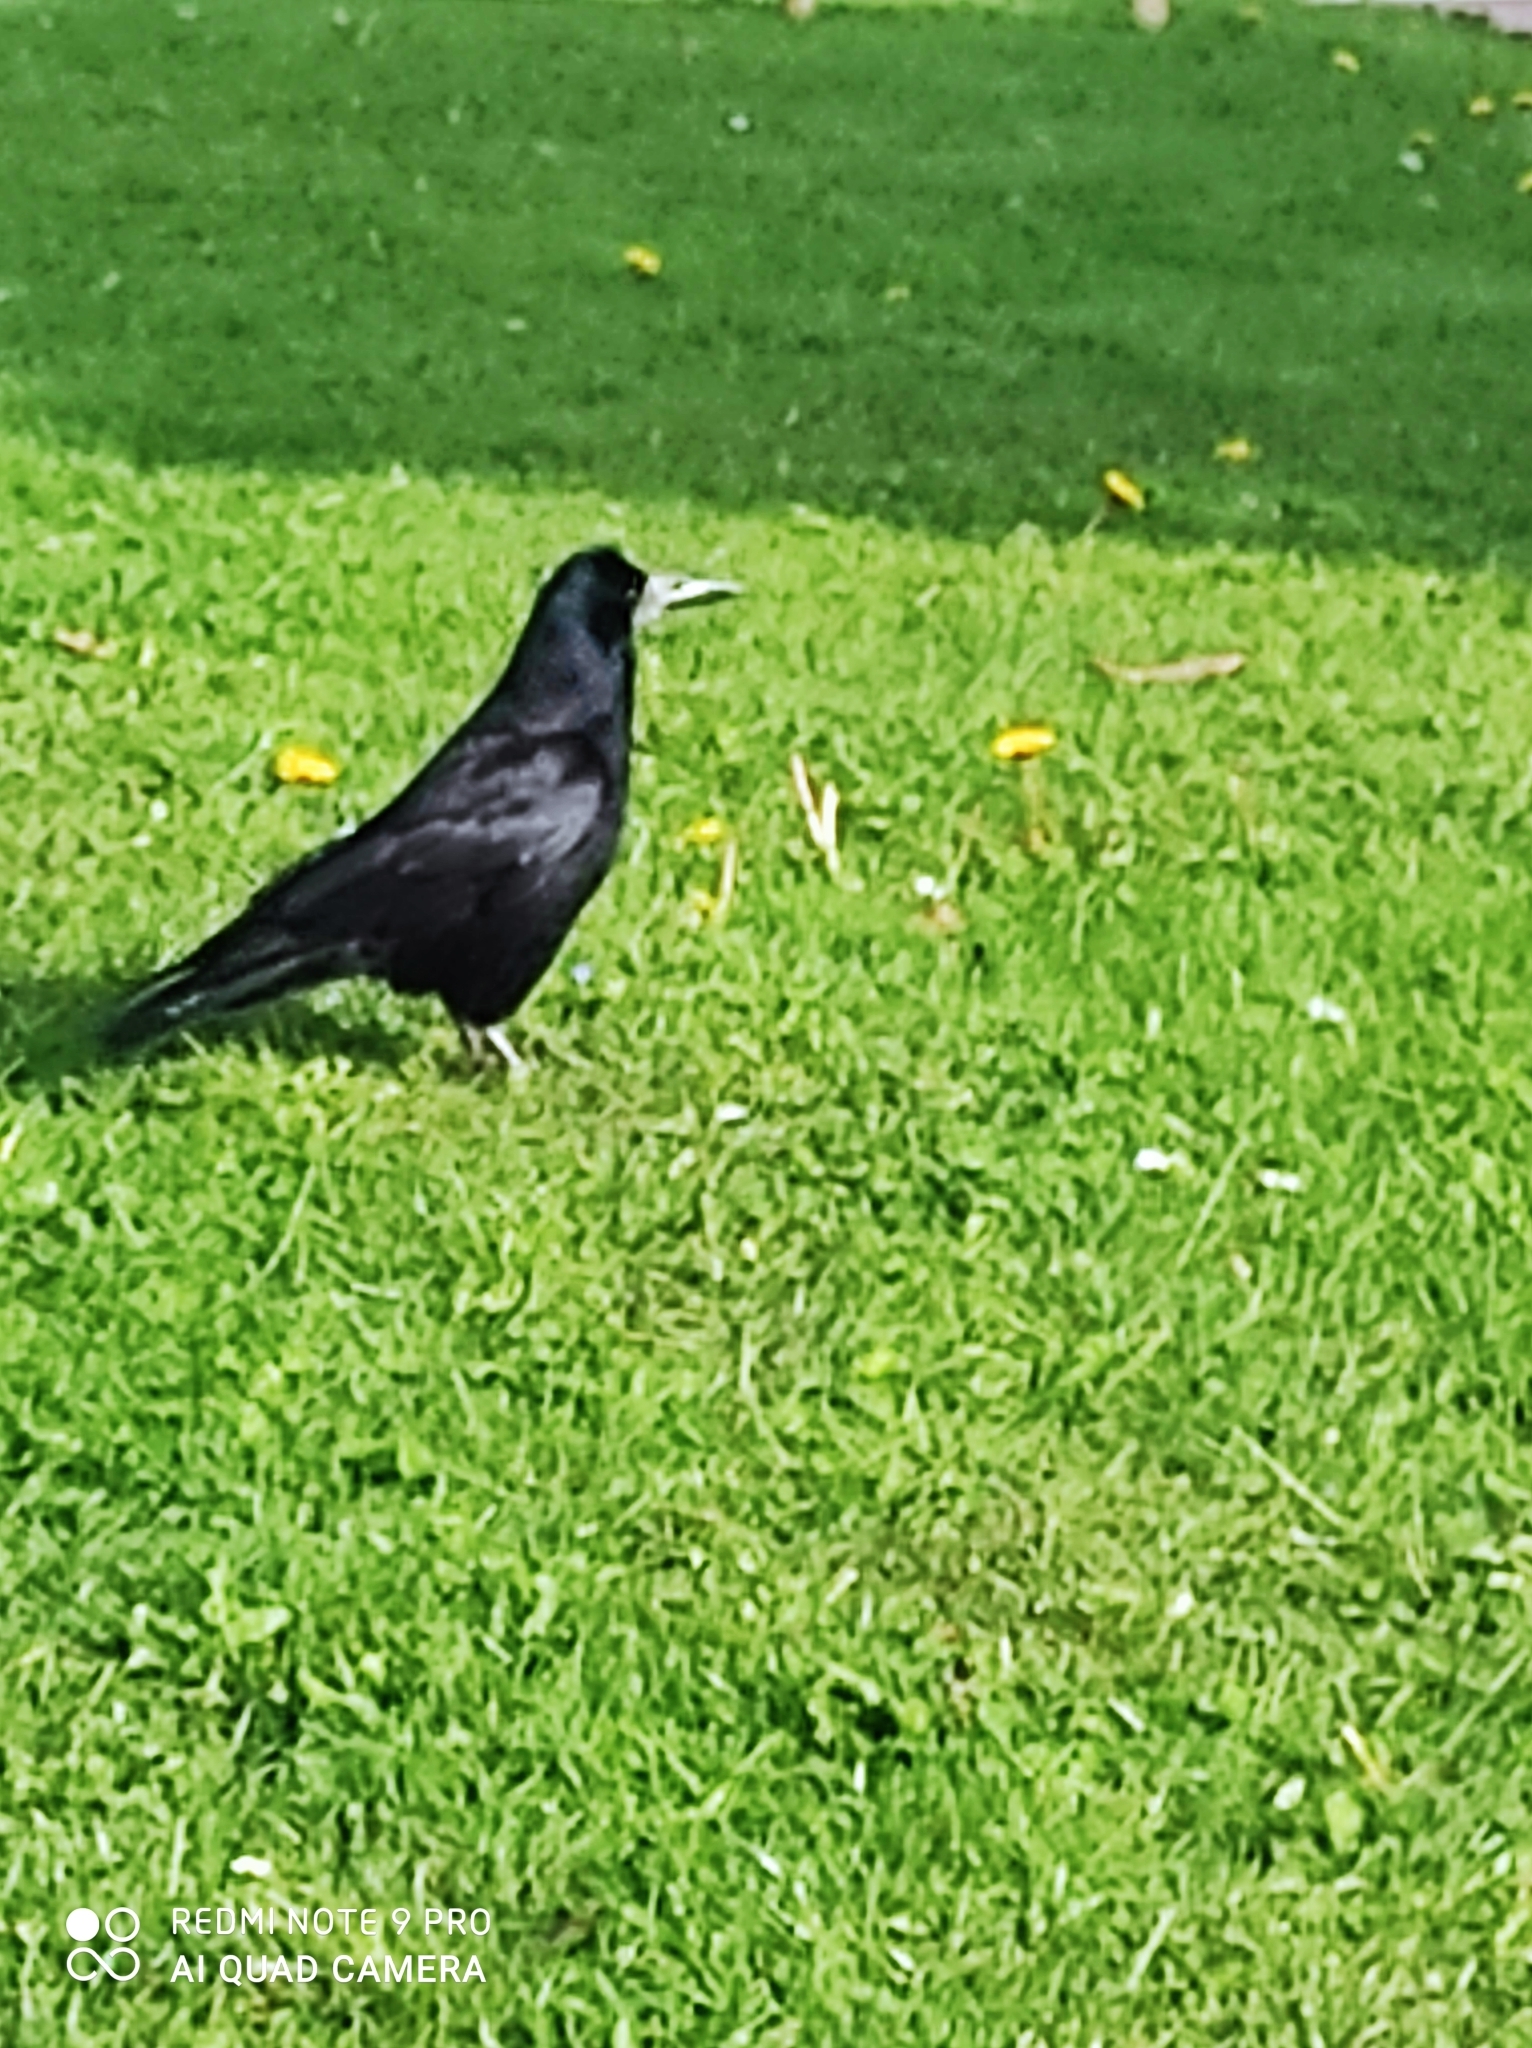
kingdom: Animalia
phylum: Chordata
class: Aves
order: Passeriformes
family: Corvidae
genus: Corvus
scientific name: Corvus frugilegus
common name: Rook
